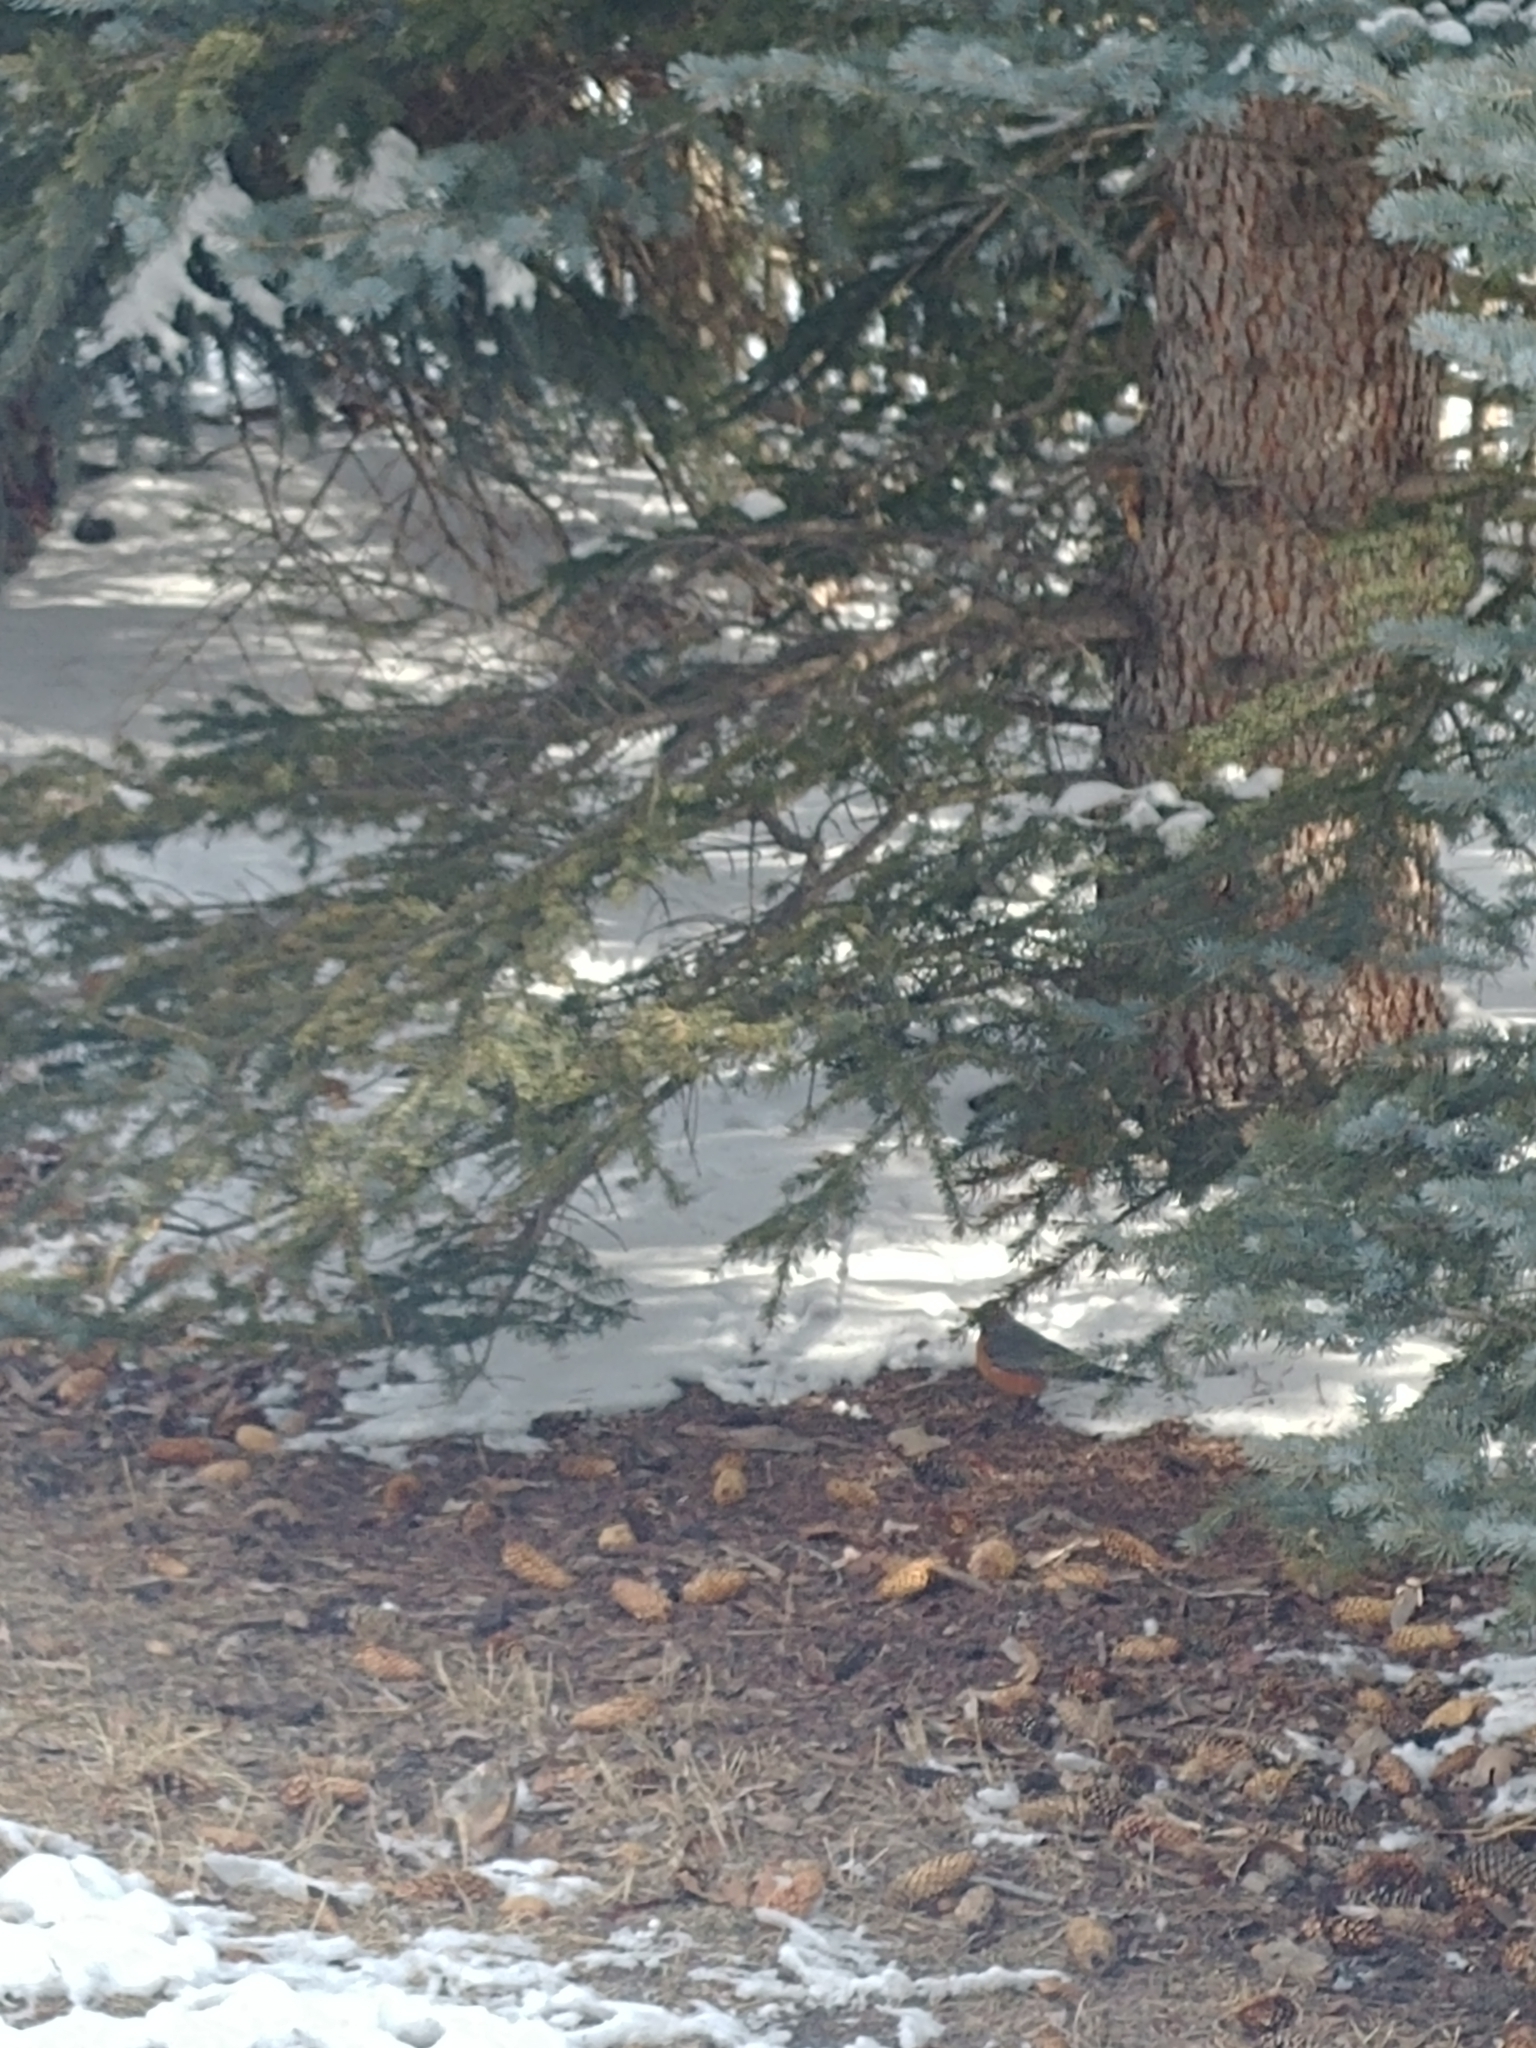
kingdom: Animalia
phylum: Chordata
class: Aves
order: Passeriformes
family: Turdidae
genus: Turdus
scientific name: Turdus migratorius
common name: American robin
